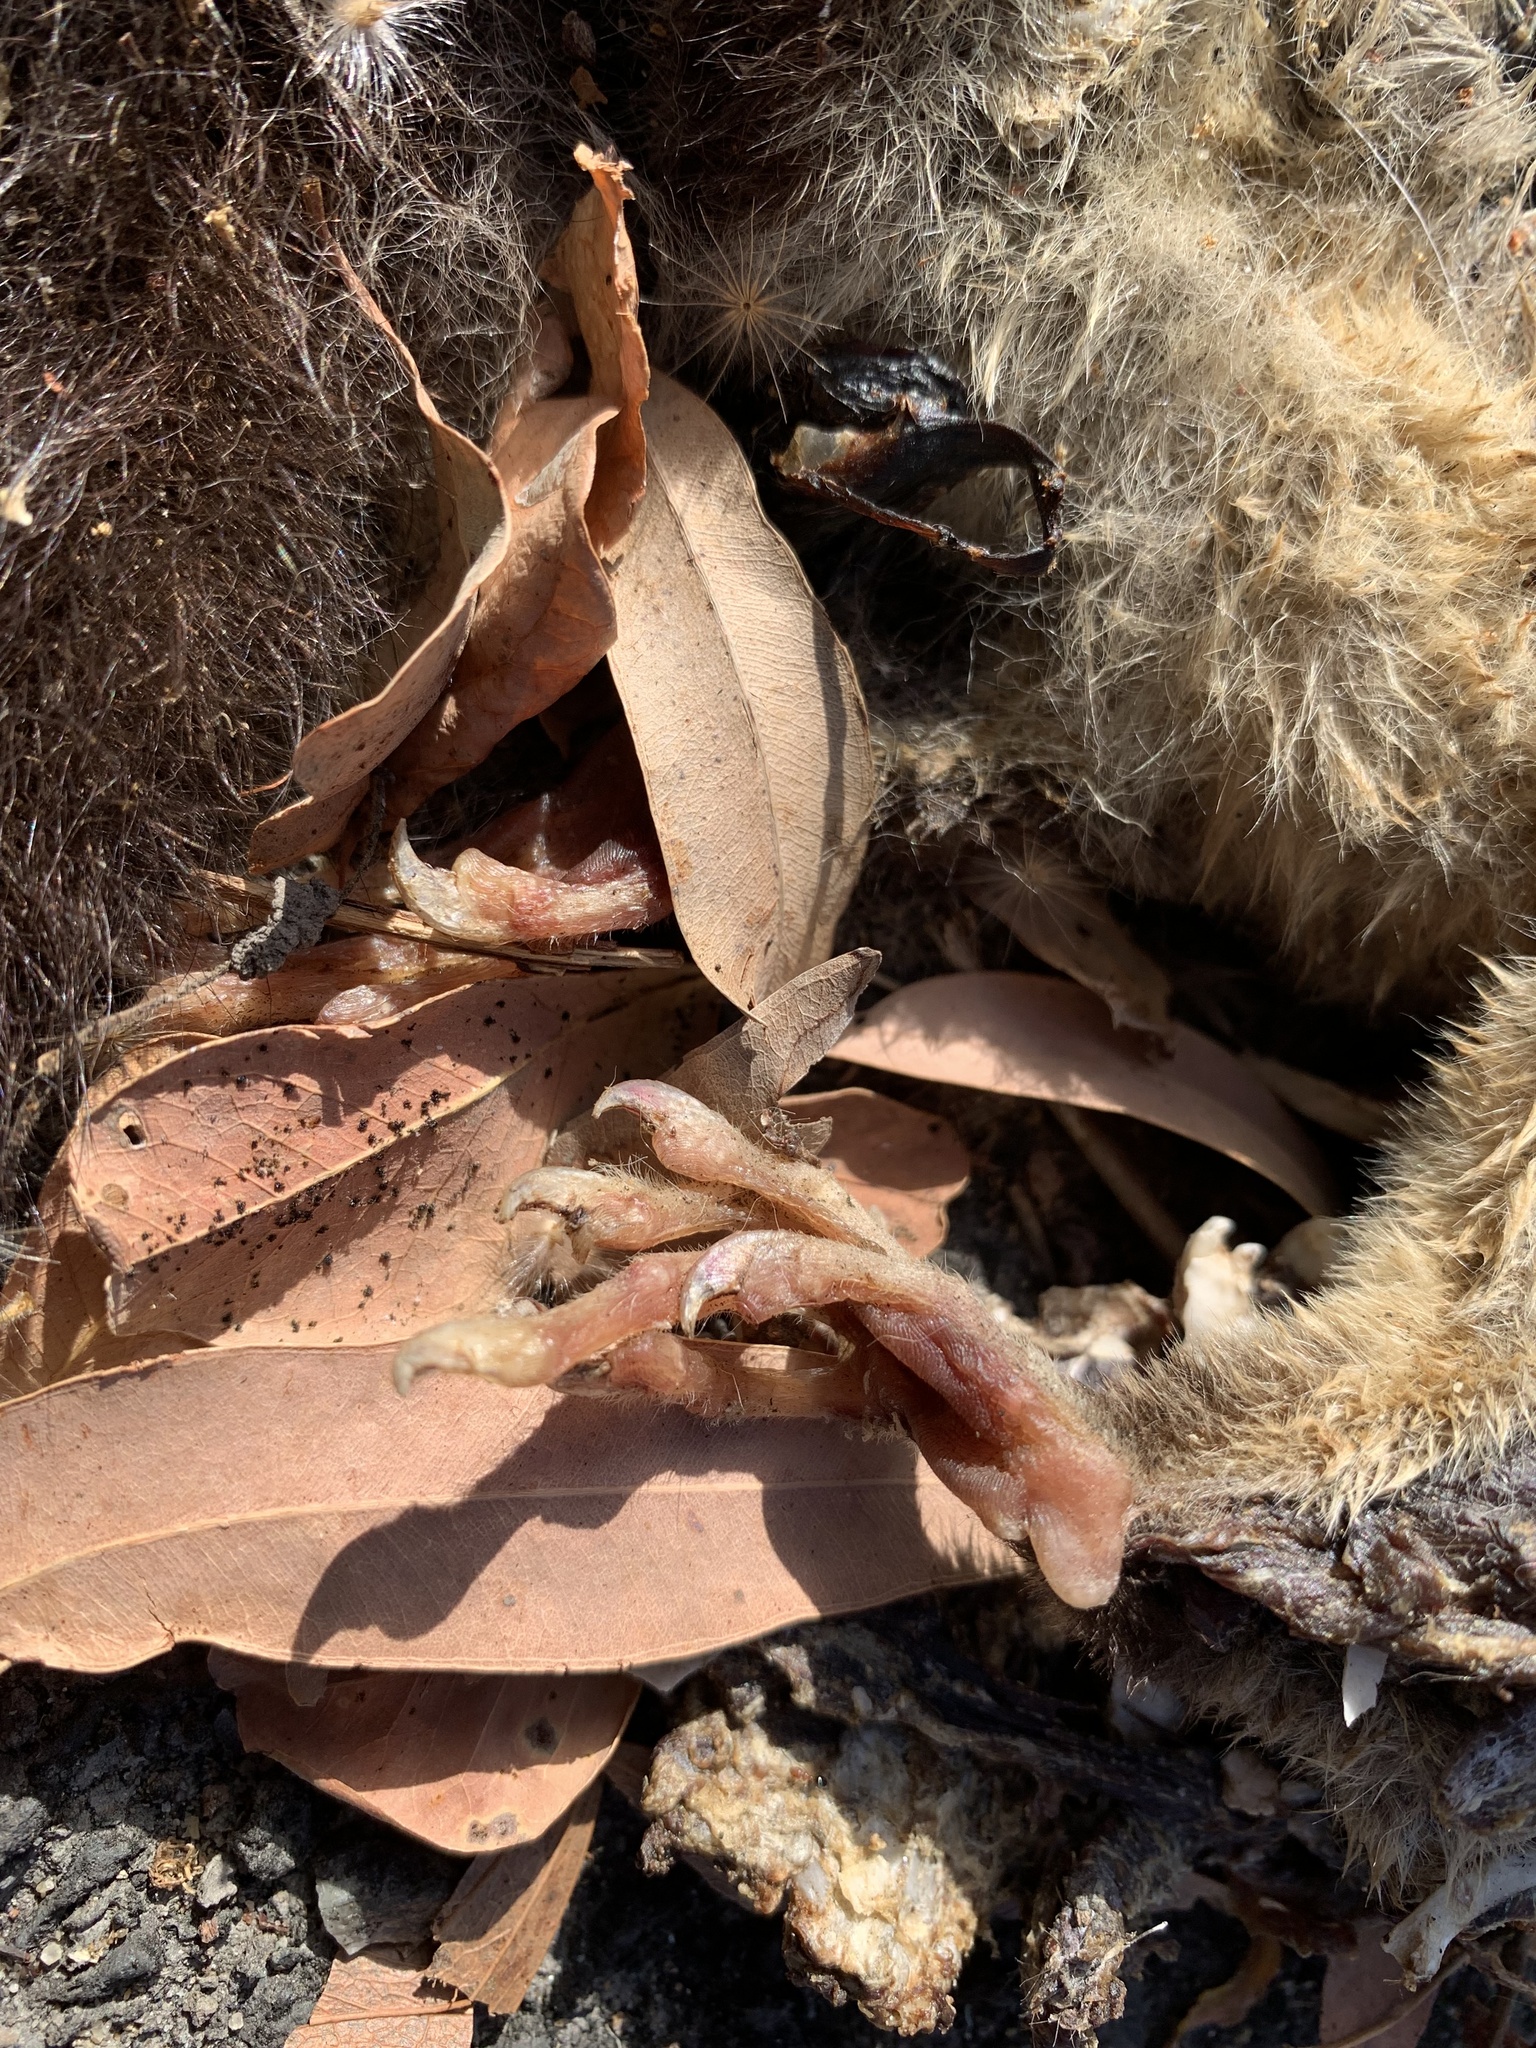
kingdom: Animalia
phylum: Chordata
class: Mammalia
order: Diprotodontia
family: Petauridae
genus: Dactylopsila
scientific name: Dactylopsila trivirgata
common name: Striped possum
